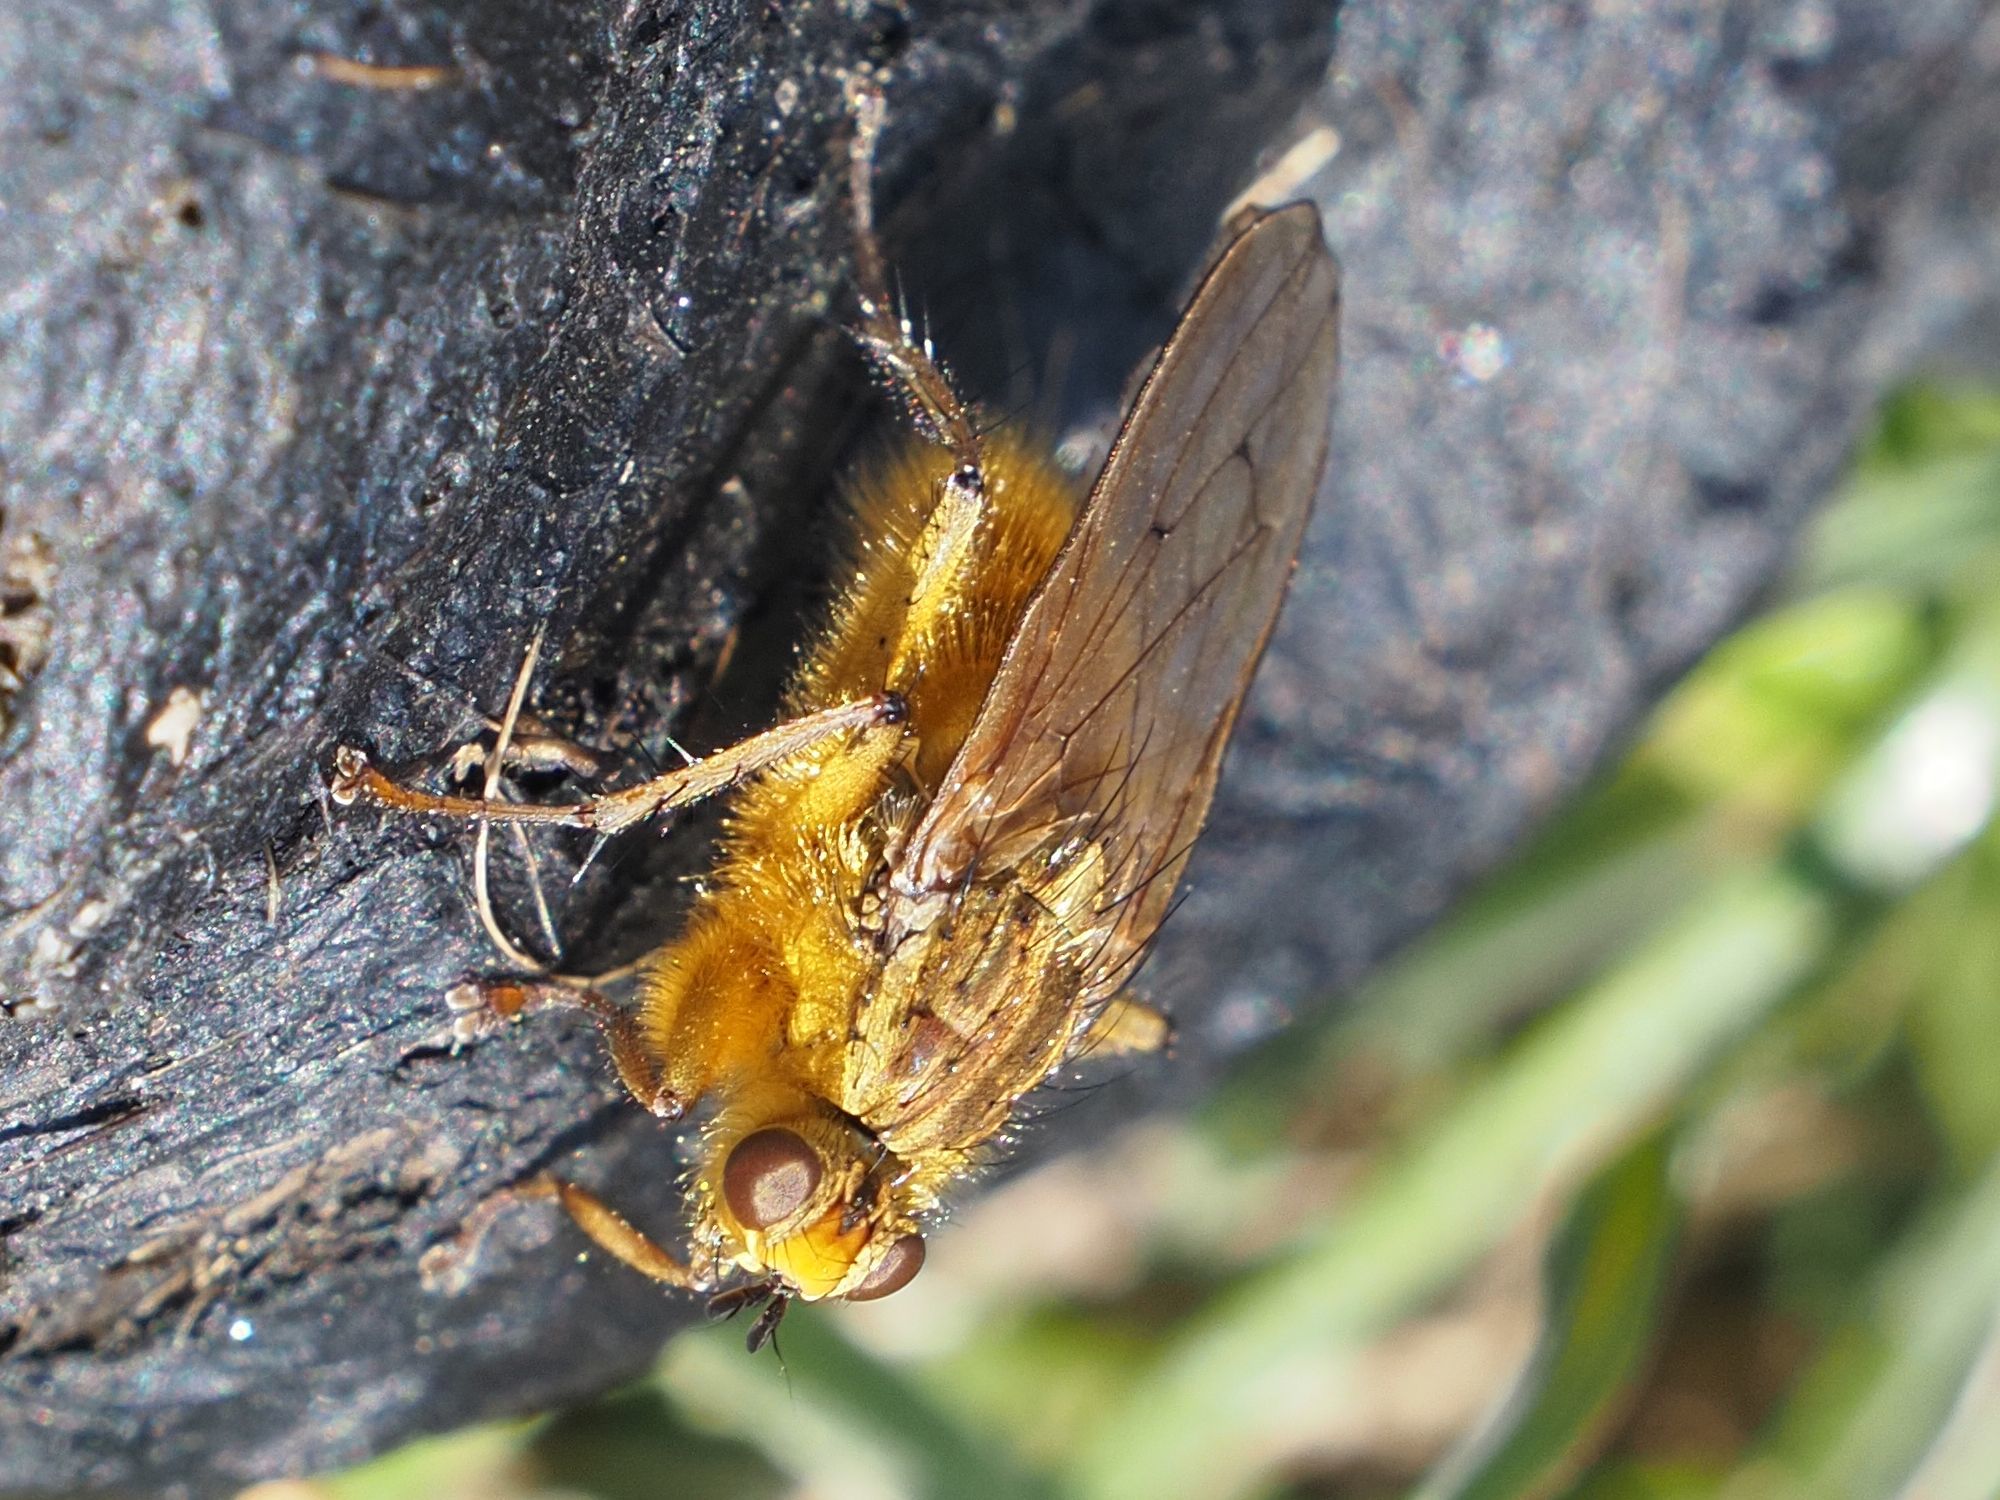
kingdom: Animalia
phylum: Arthropoda
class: Insecta
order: Diptera
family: Scathophagidae
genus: Scathophaga
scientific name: Scathophaga stercoraria
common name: Yellow dung fly
